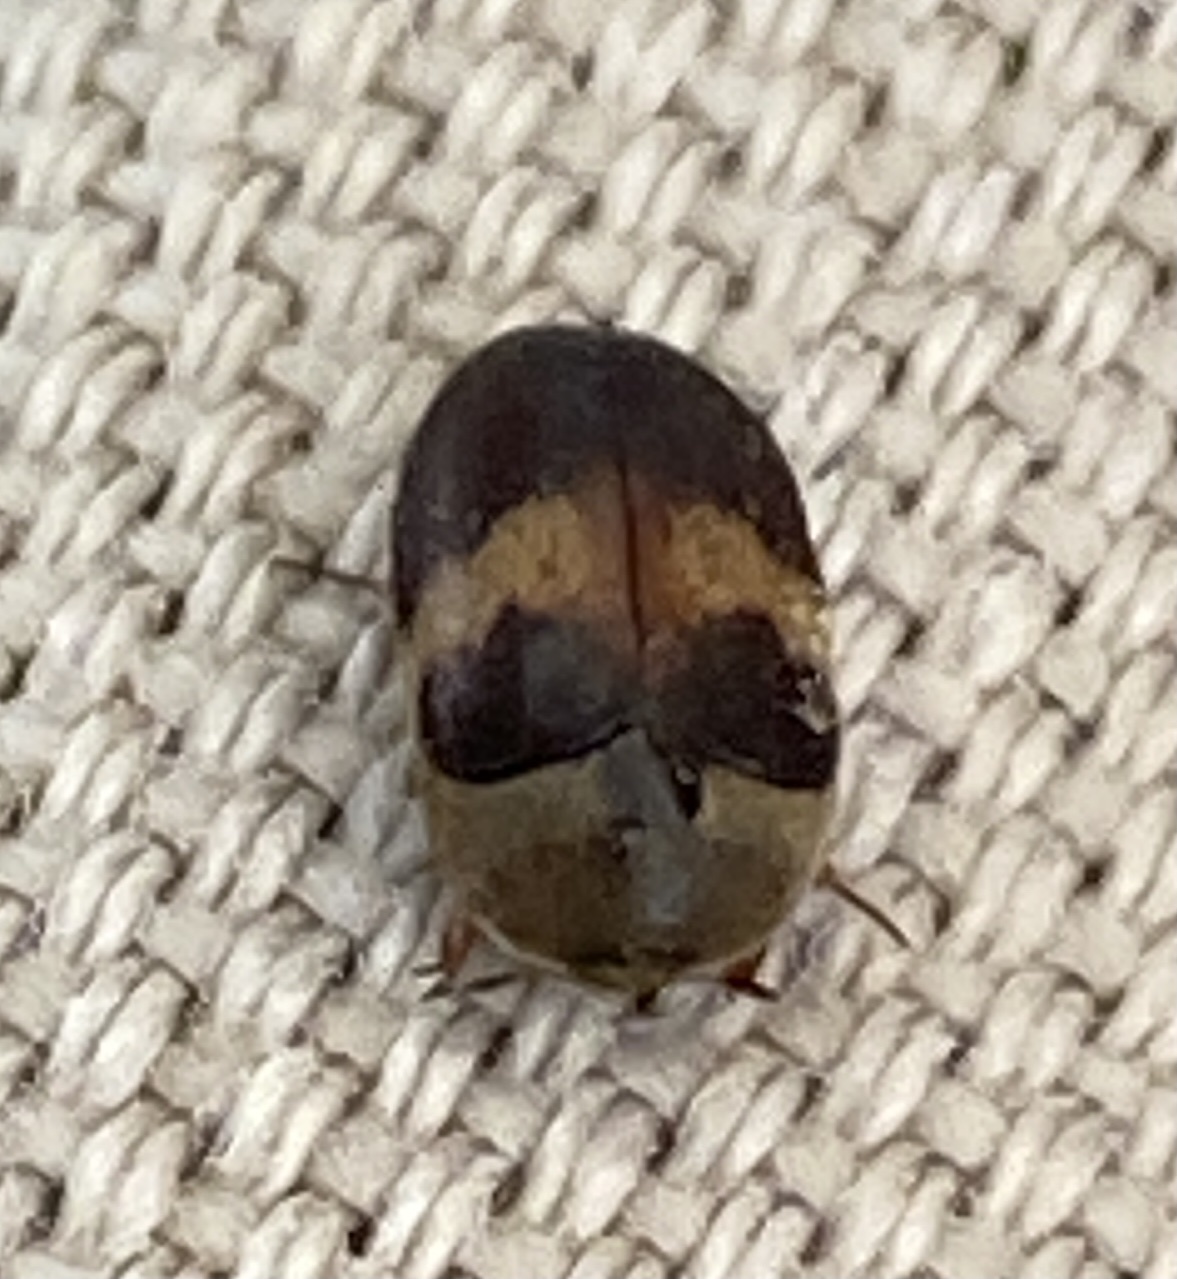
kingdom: Animalia
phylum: Arthropoda
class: Insecta
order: Coleoptera
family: Dermestidae
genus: Attagenus
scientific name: Attagenus fasciatus
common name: Wardrobe beetle
